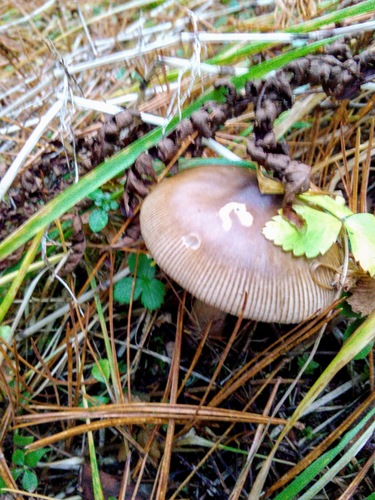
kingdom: Fungi
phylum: Basidiomycota
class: Agaricomycetes
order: Agaricales
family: Amanitaceae
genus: Amanita
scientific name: Amanita battarrae
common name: Banded amanita
